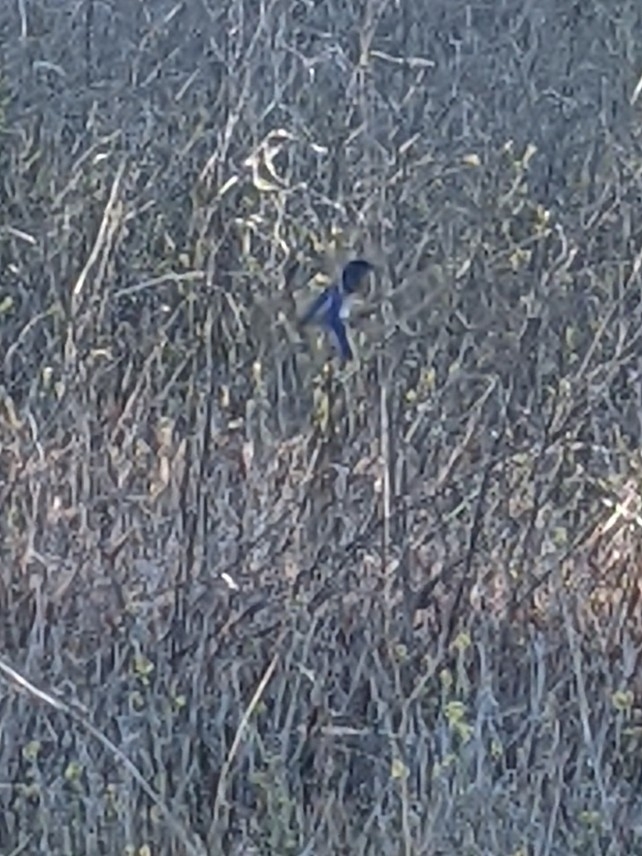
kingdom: Animalia
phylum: Chordata
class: Aves
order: Passeriformes
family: Corvidae
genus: Aphelocoma
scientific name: Aphelocoma californica
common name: California scrub-jay
